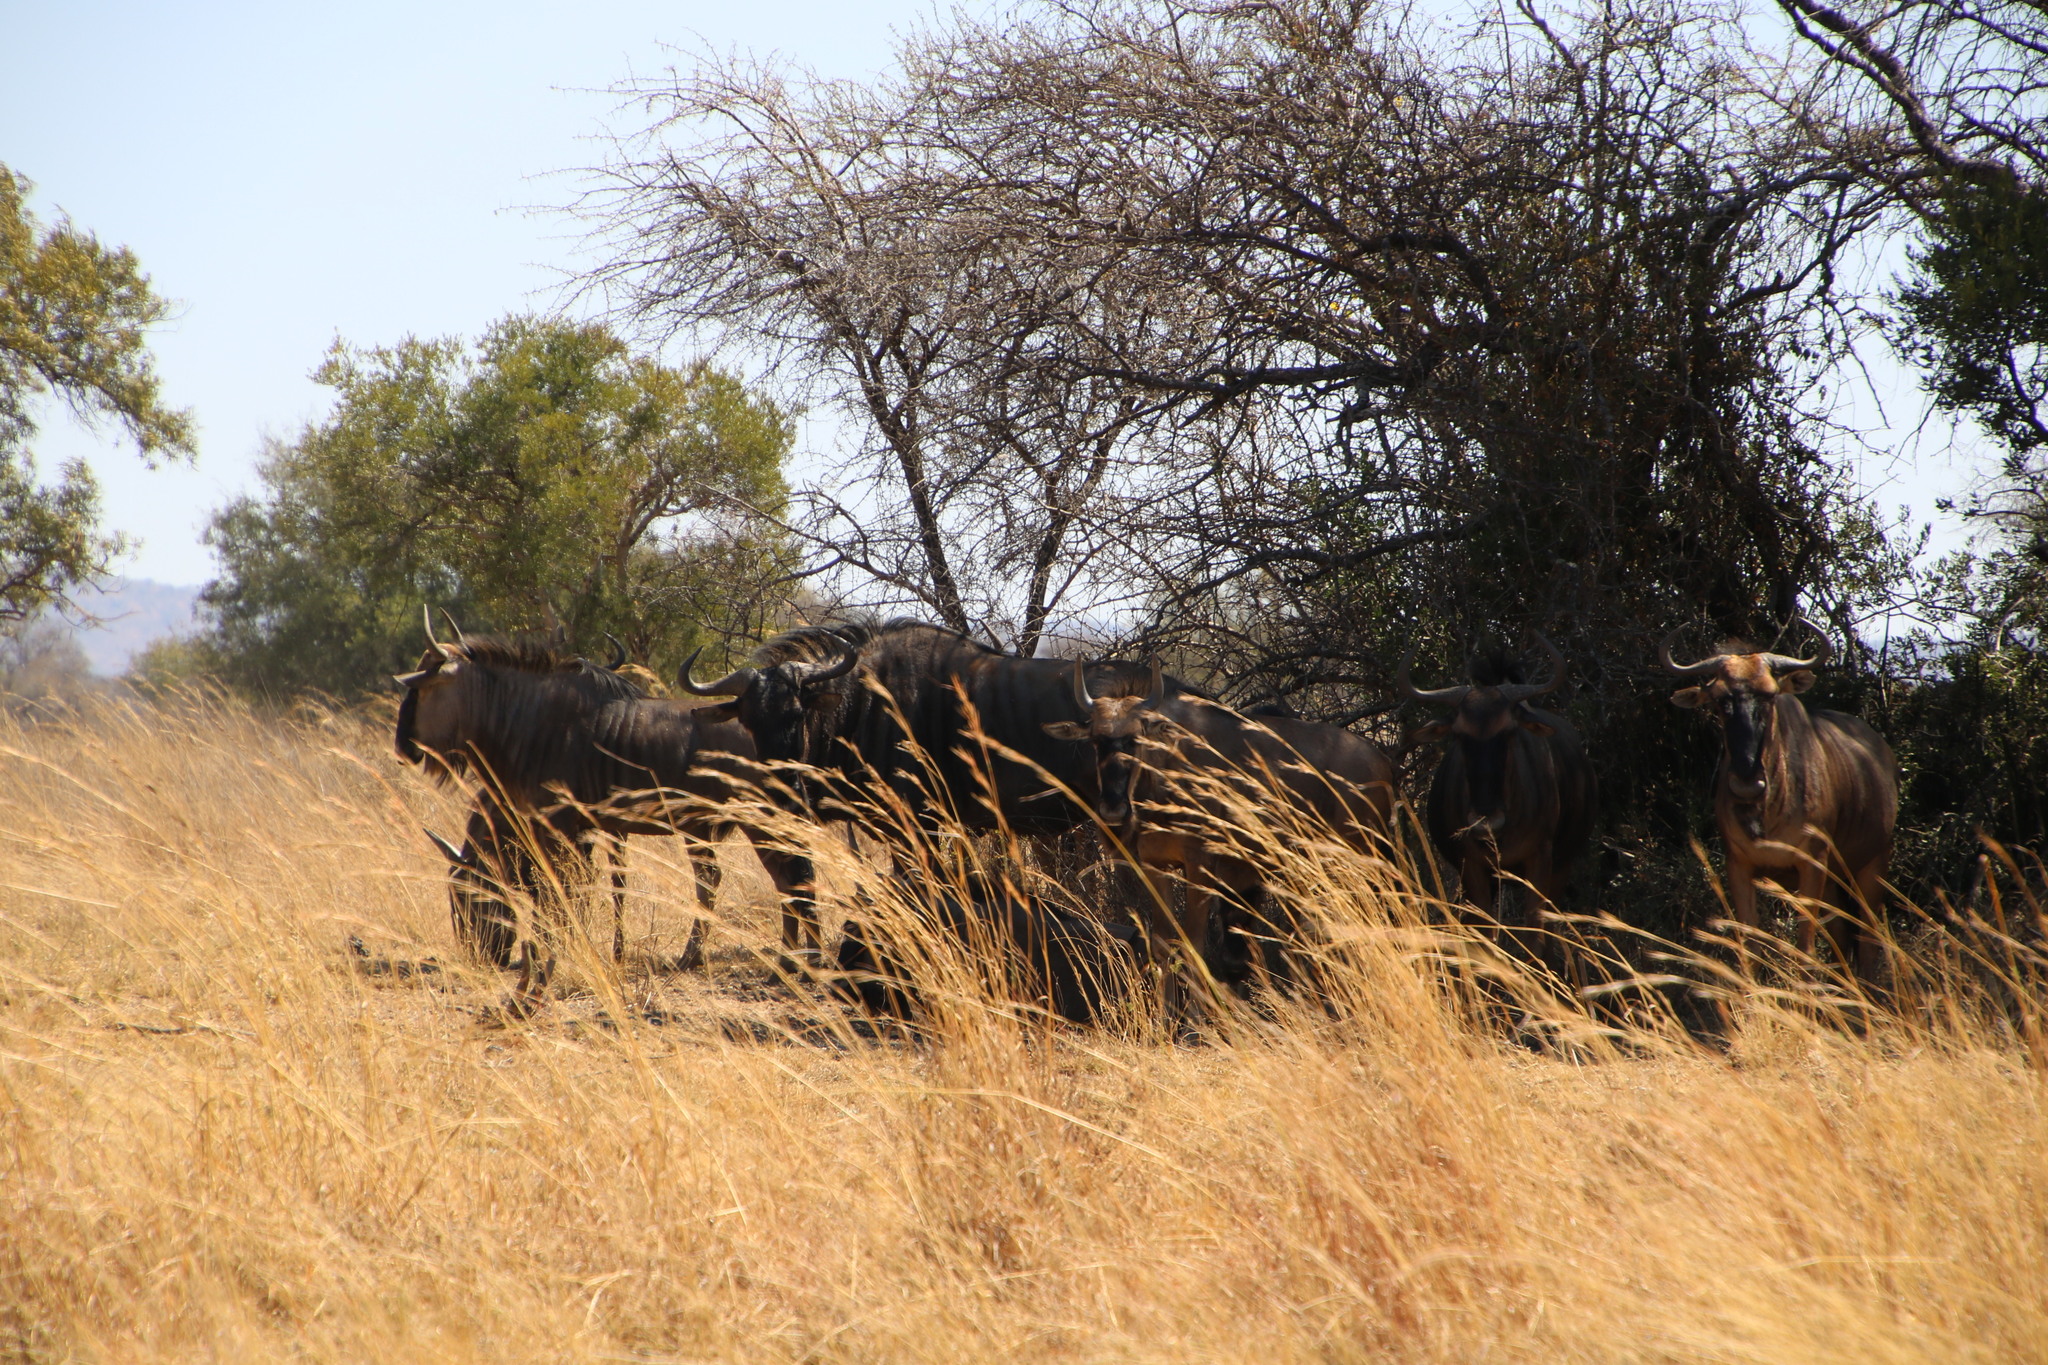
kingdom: Animalia
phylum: Chordata
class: Mammalia
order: Artiodactyla
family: Bovidae
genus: Connochaetes
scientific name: Connochaetes taurinus
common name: Blue wildebeest
